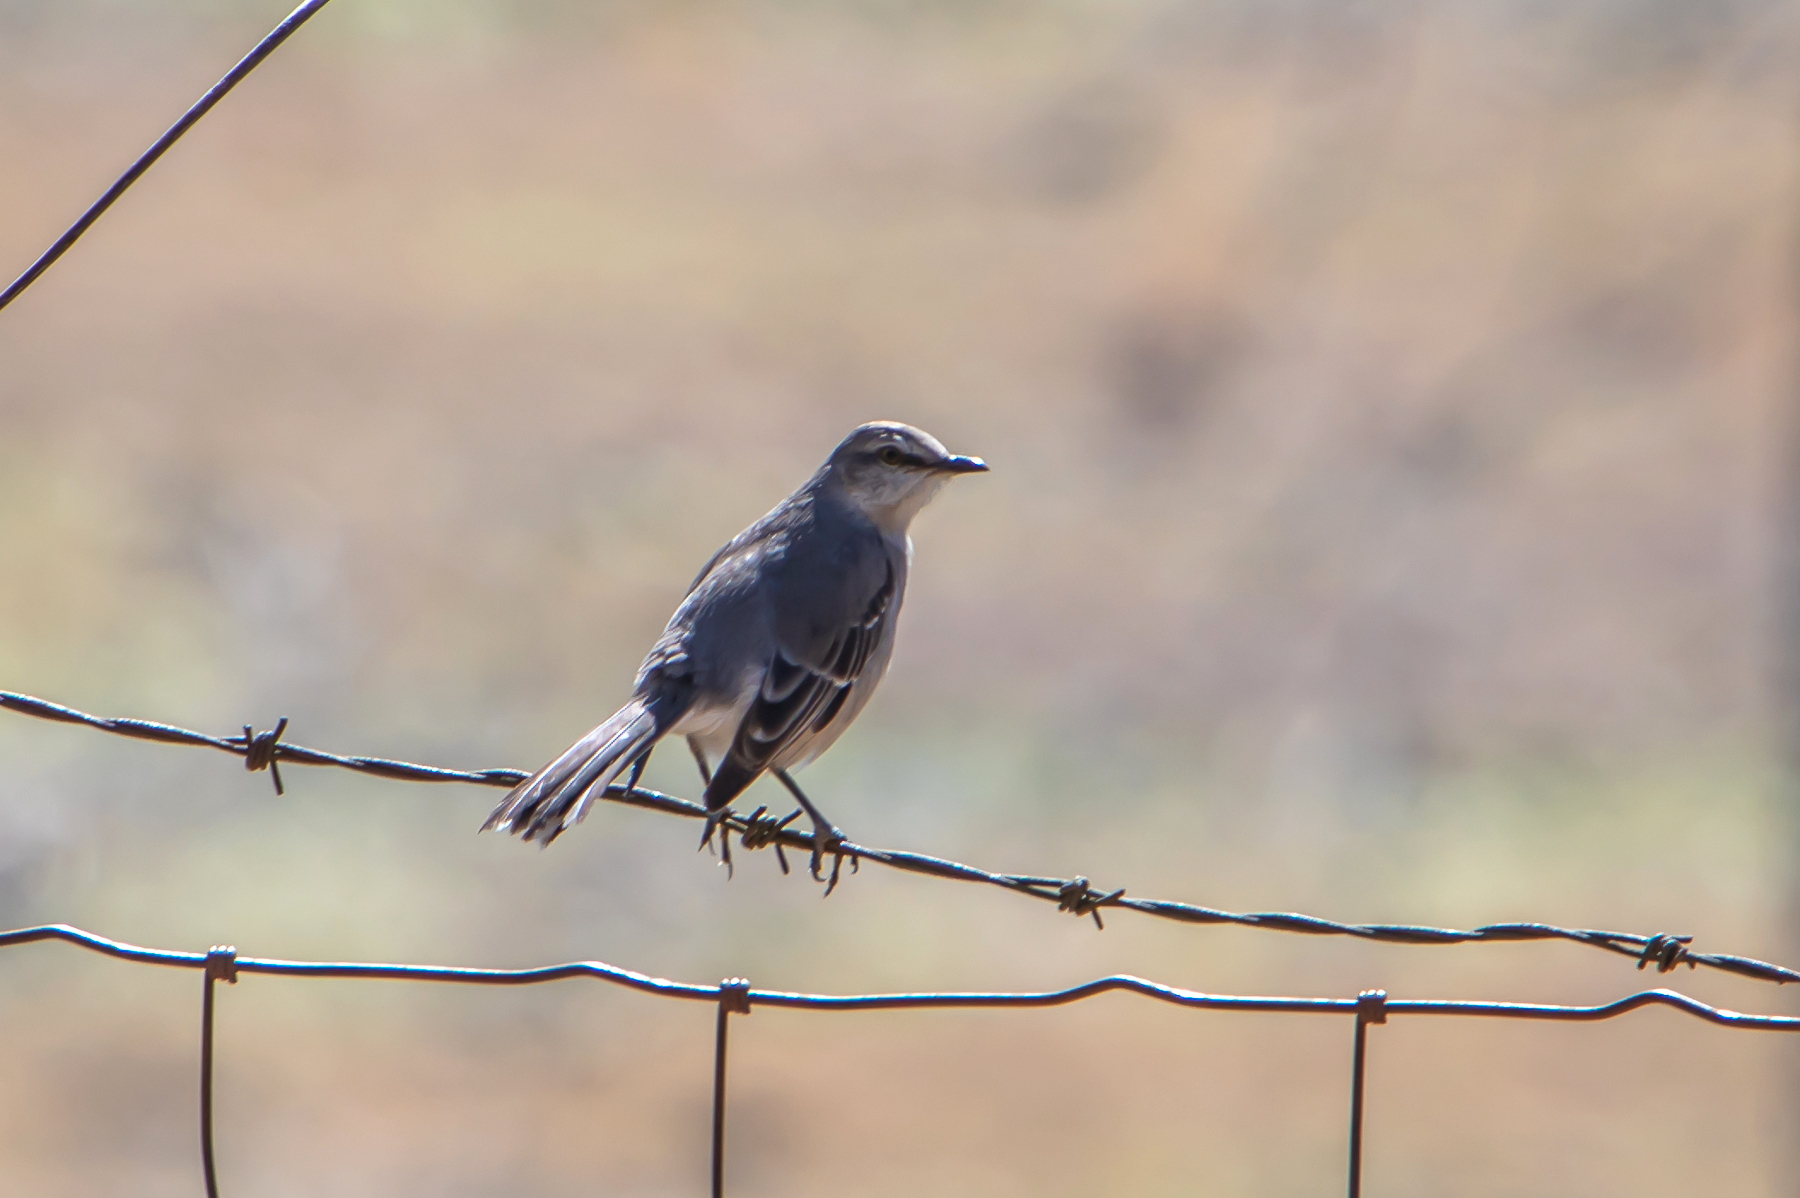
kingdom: Animalia
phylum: Chordata
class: Aves
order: Passeriformes
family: Mimidae
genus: Mimus
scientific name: Mimus polyglottos
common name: Northern mockingbird
